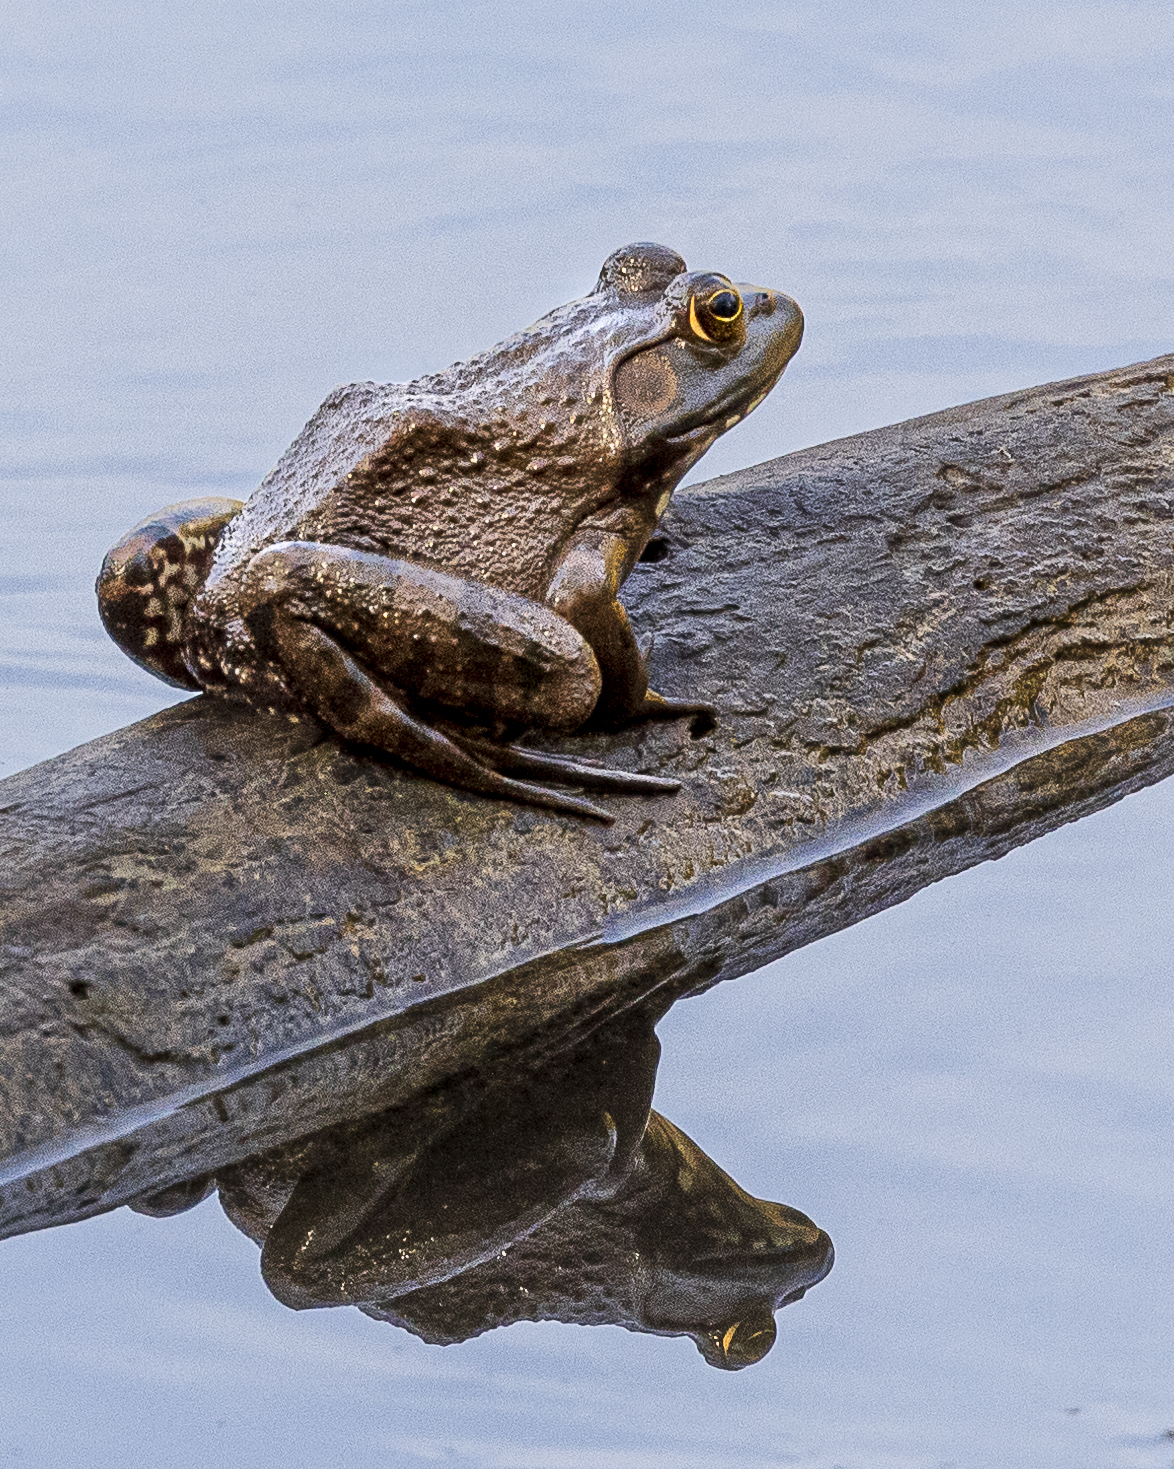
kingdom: Animalia
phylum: Chordata
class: Amphibia
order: Anura
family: Ranidae
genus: Lithobates
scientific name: Lithobates catesbeianus
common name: American bullfrog
